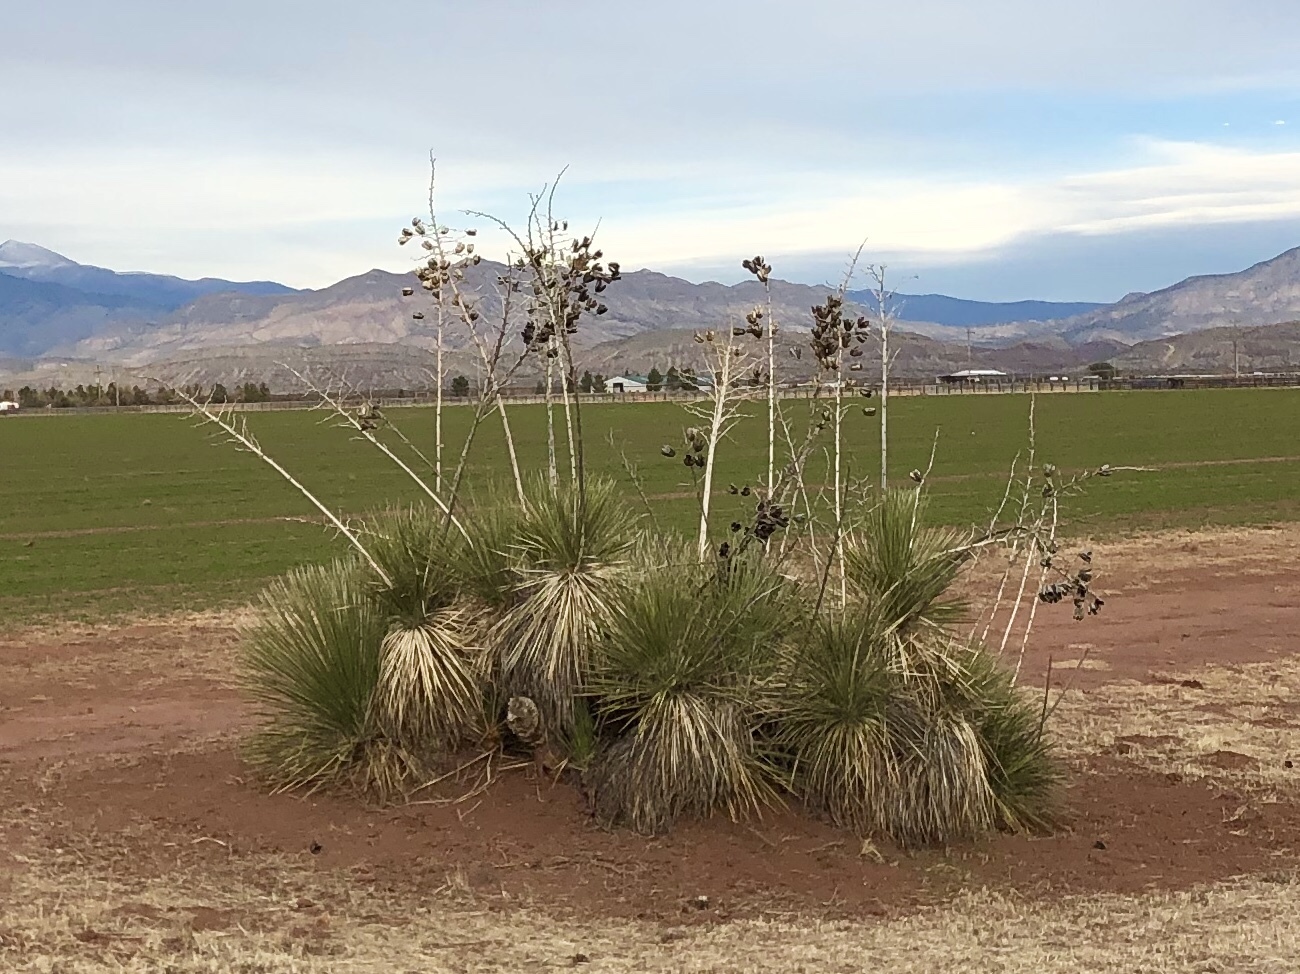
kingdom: Plantae
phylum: Tracheophyta
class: Liliopsida
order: Asparagales
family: Asparagaceae
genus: Yucca
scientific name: Yucca elata
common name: Palmella
